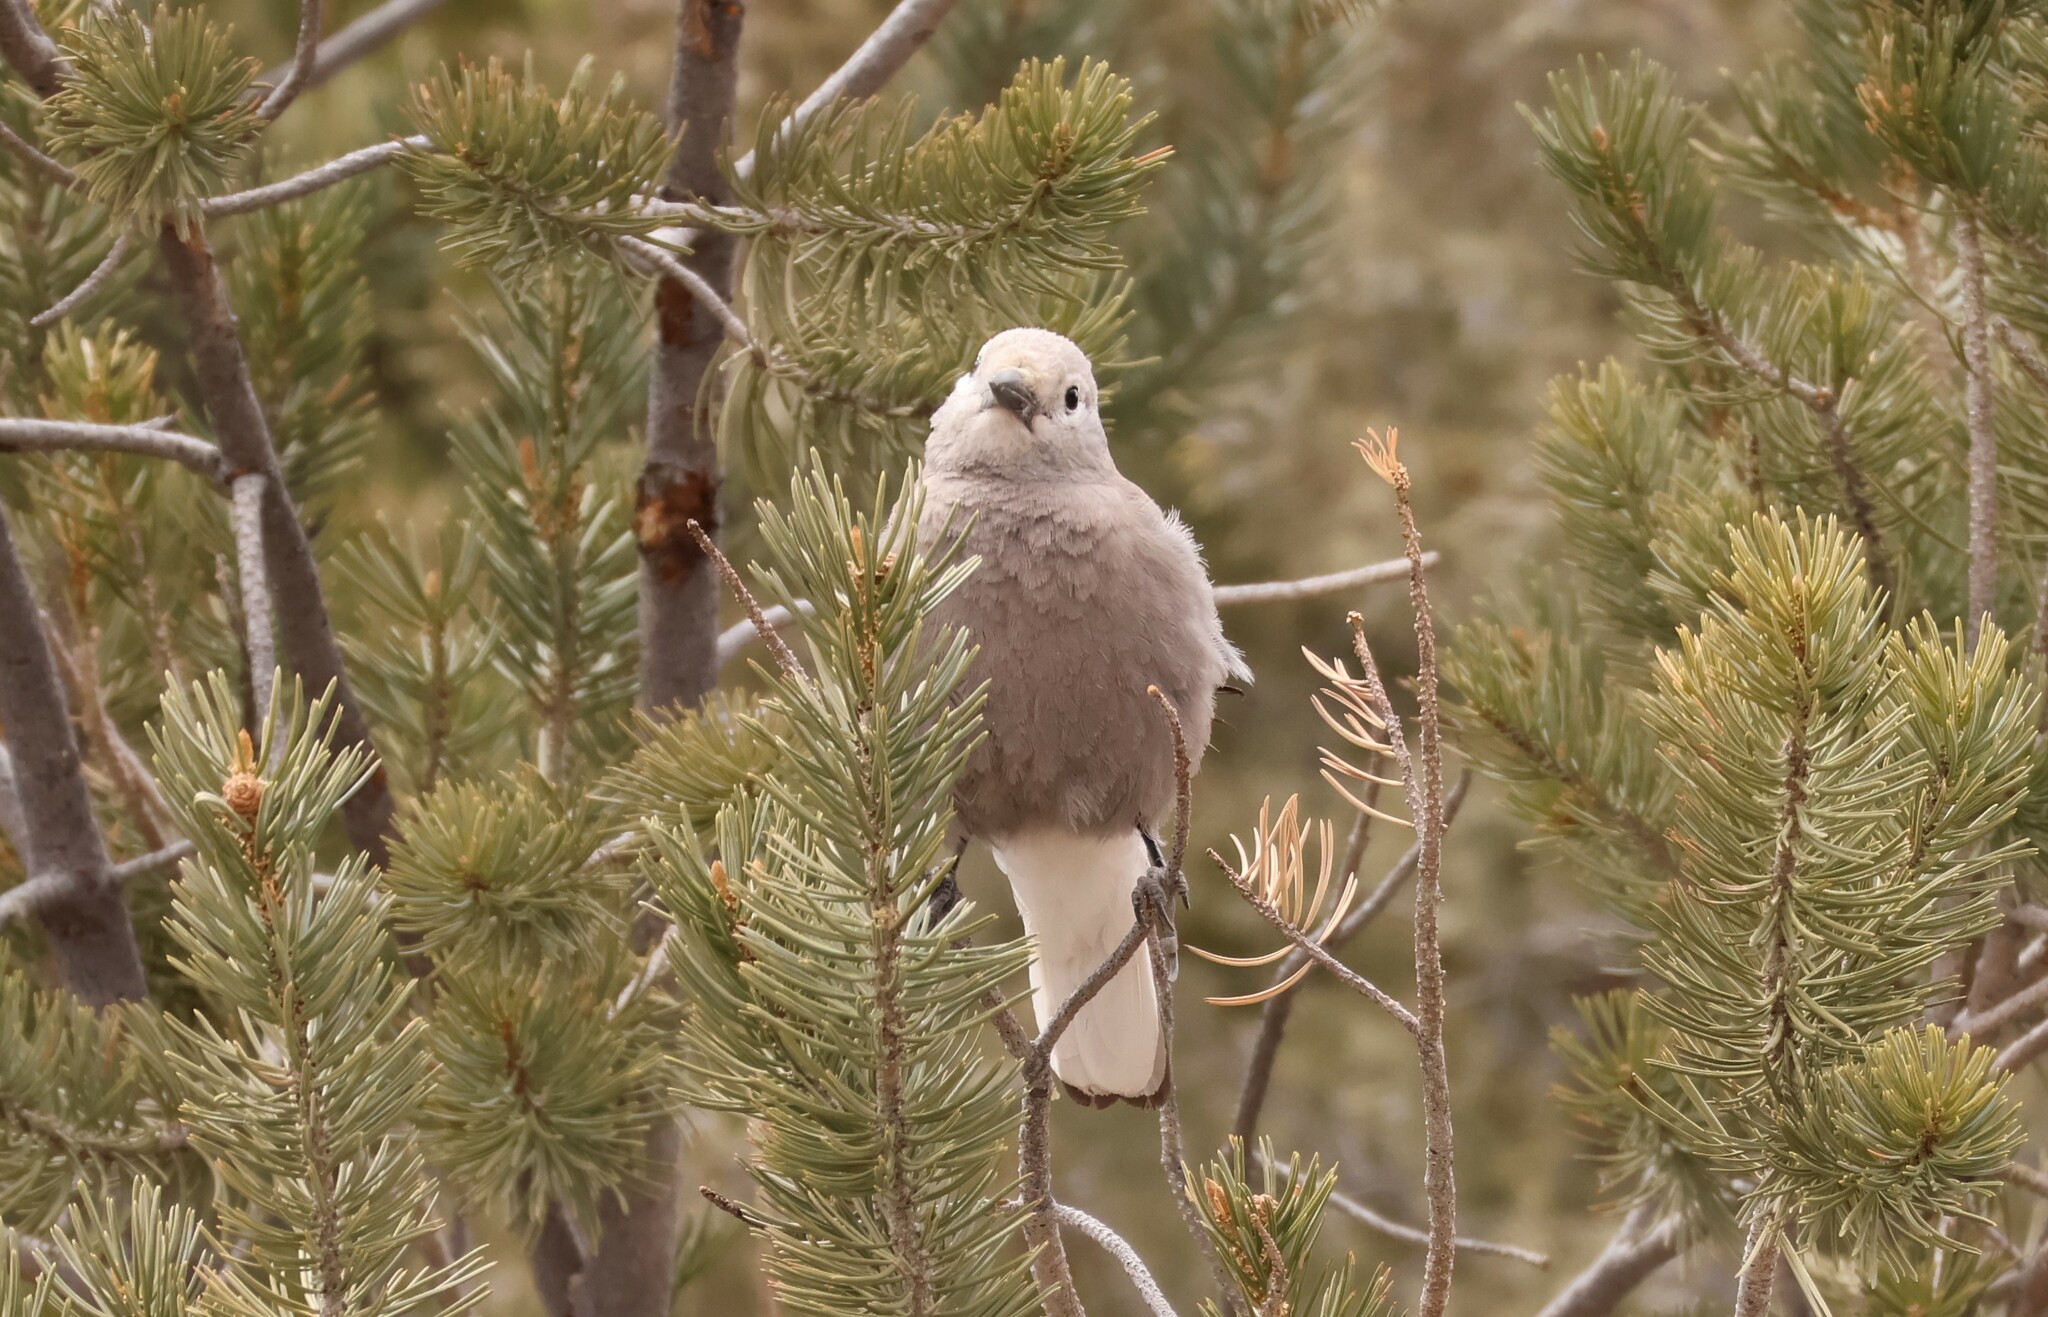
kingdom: Animalia
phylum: Chordata
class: Aves
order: Passeriformes
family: Corvidae
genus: Nucifraga
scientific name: Nucifraga columbiana
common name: Clark's nutcracker
